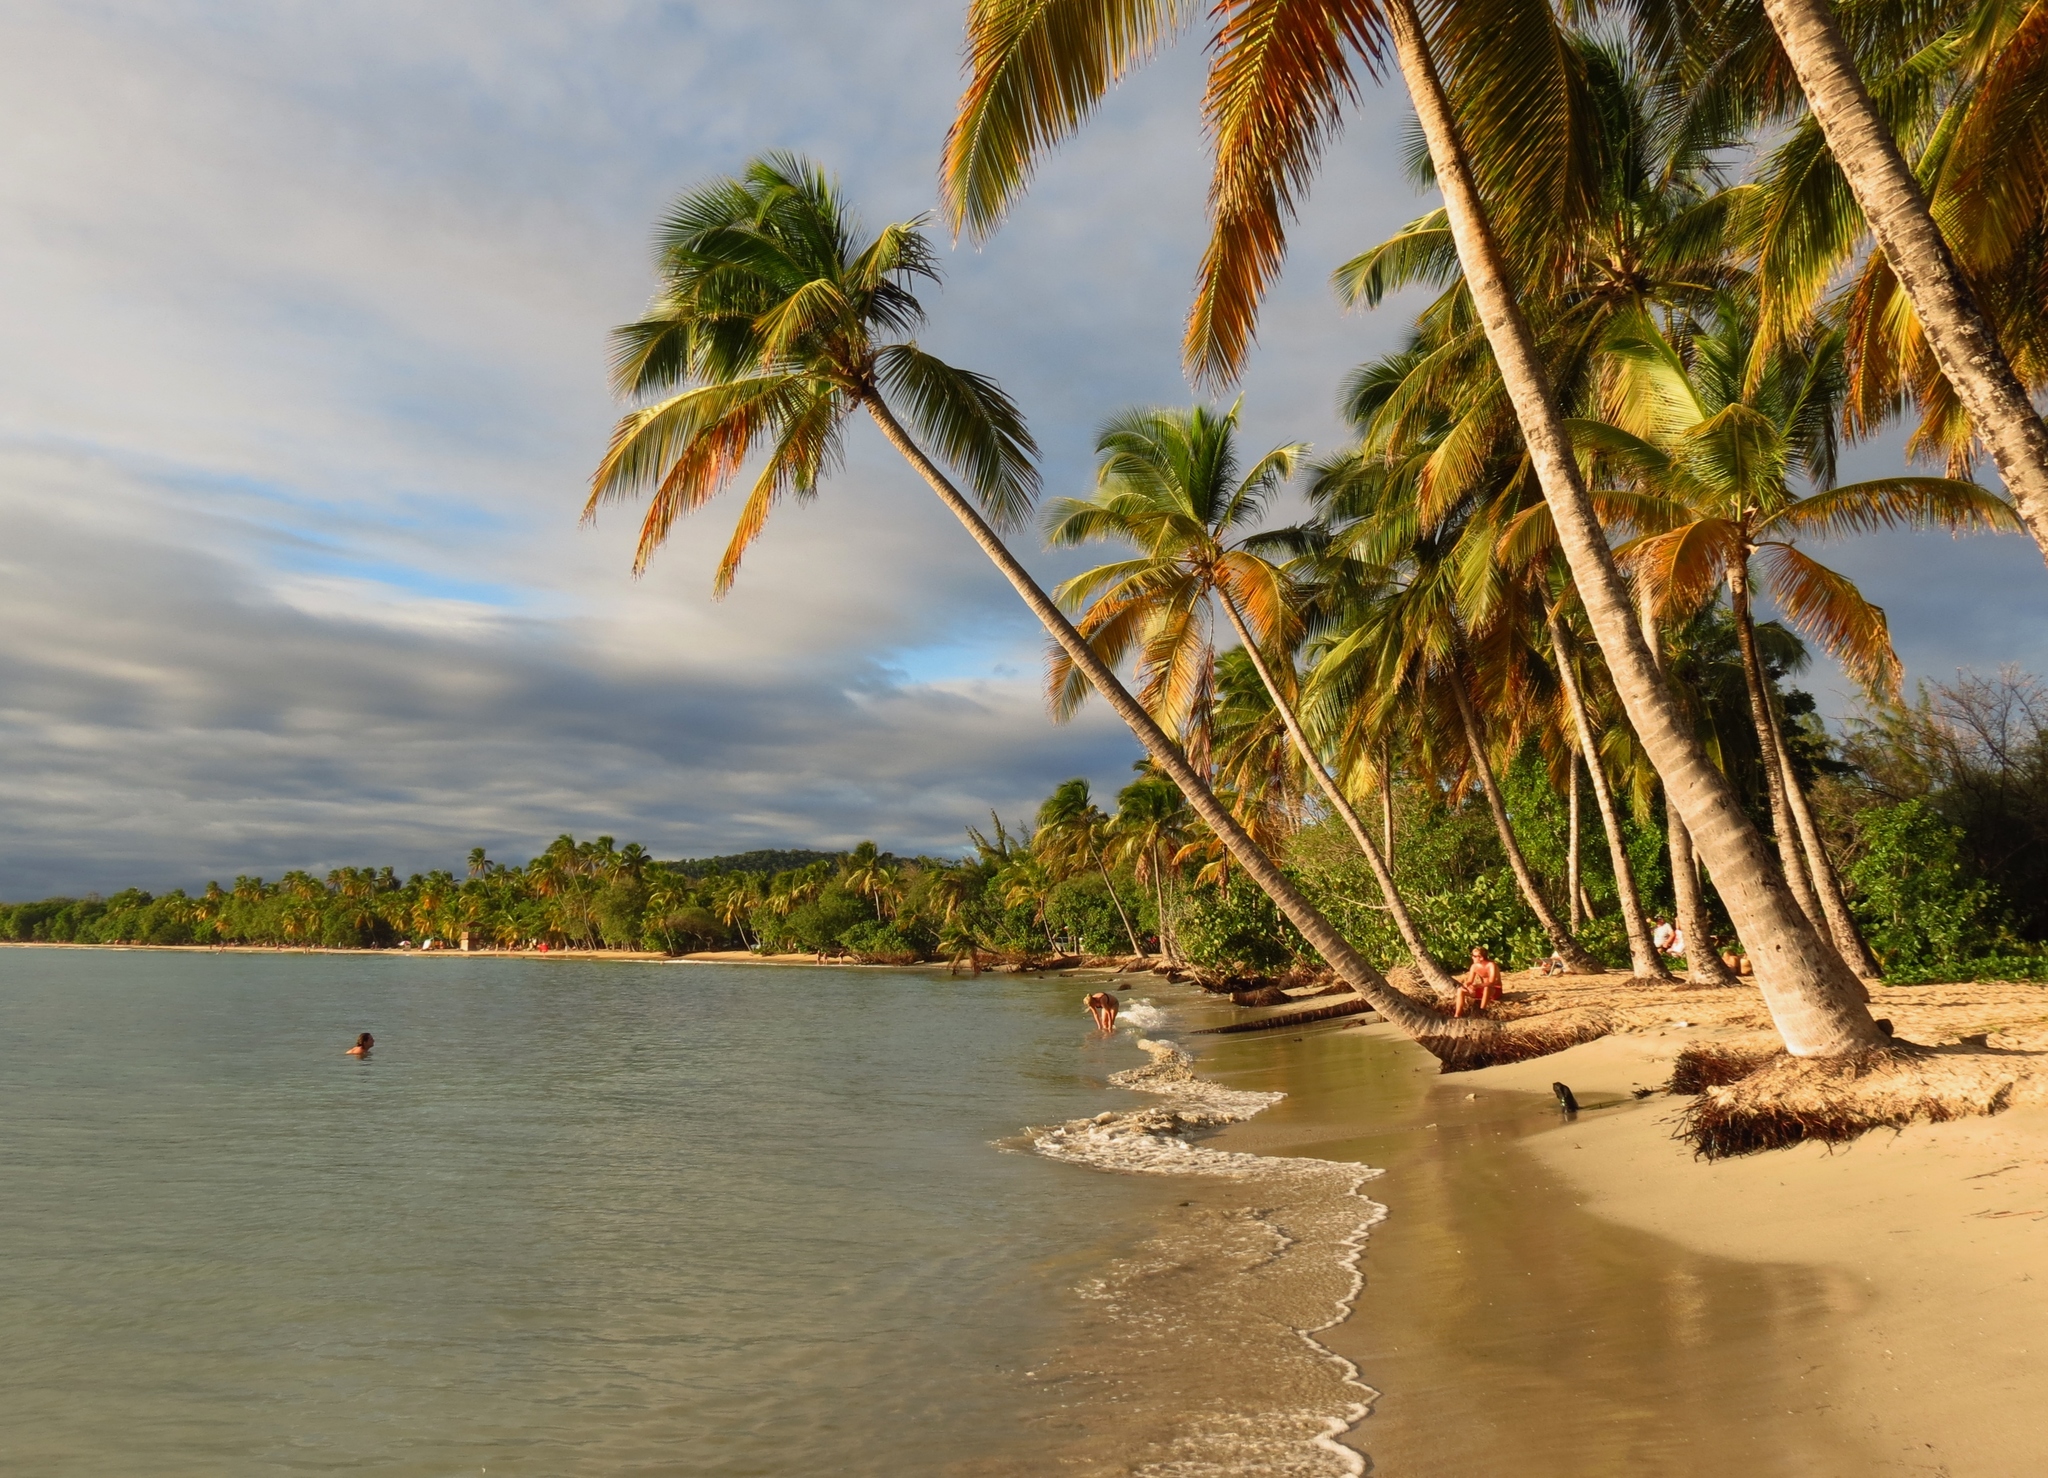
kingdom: Plantae
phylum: Tracheophyta
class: Liliopsida
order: Arecales
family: Arecaceae
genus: Cocos
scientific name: Cocos nucifera
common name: Coconut palm
